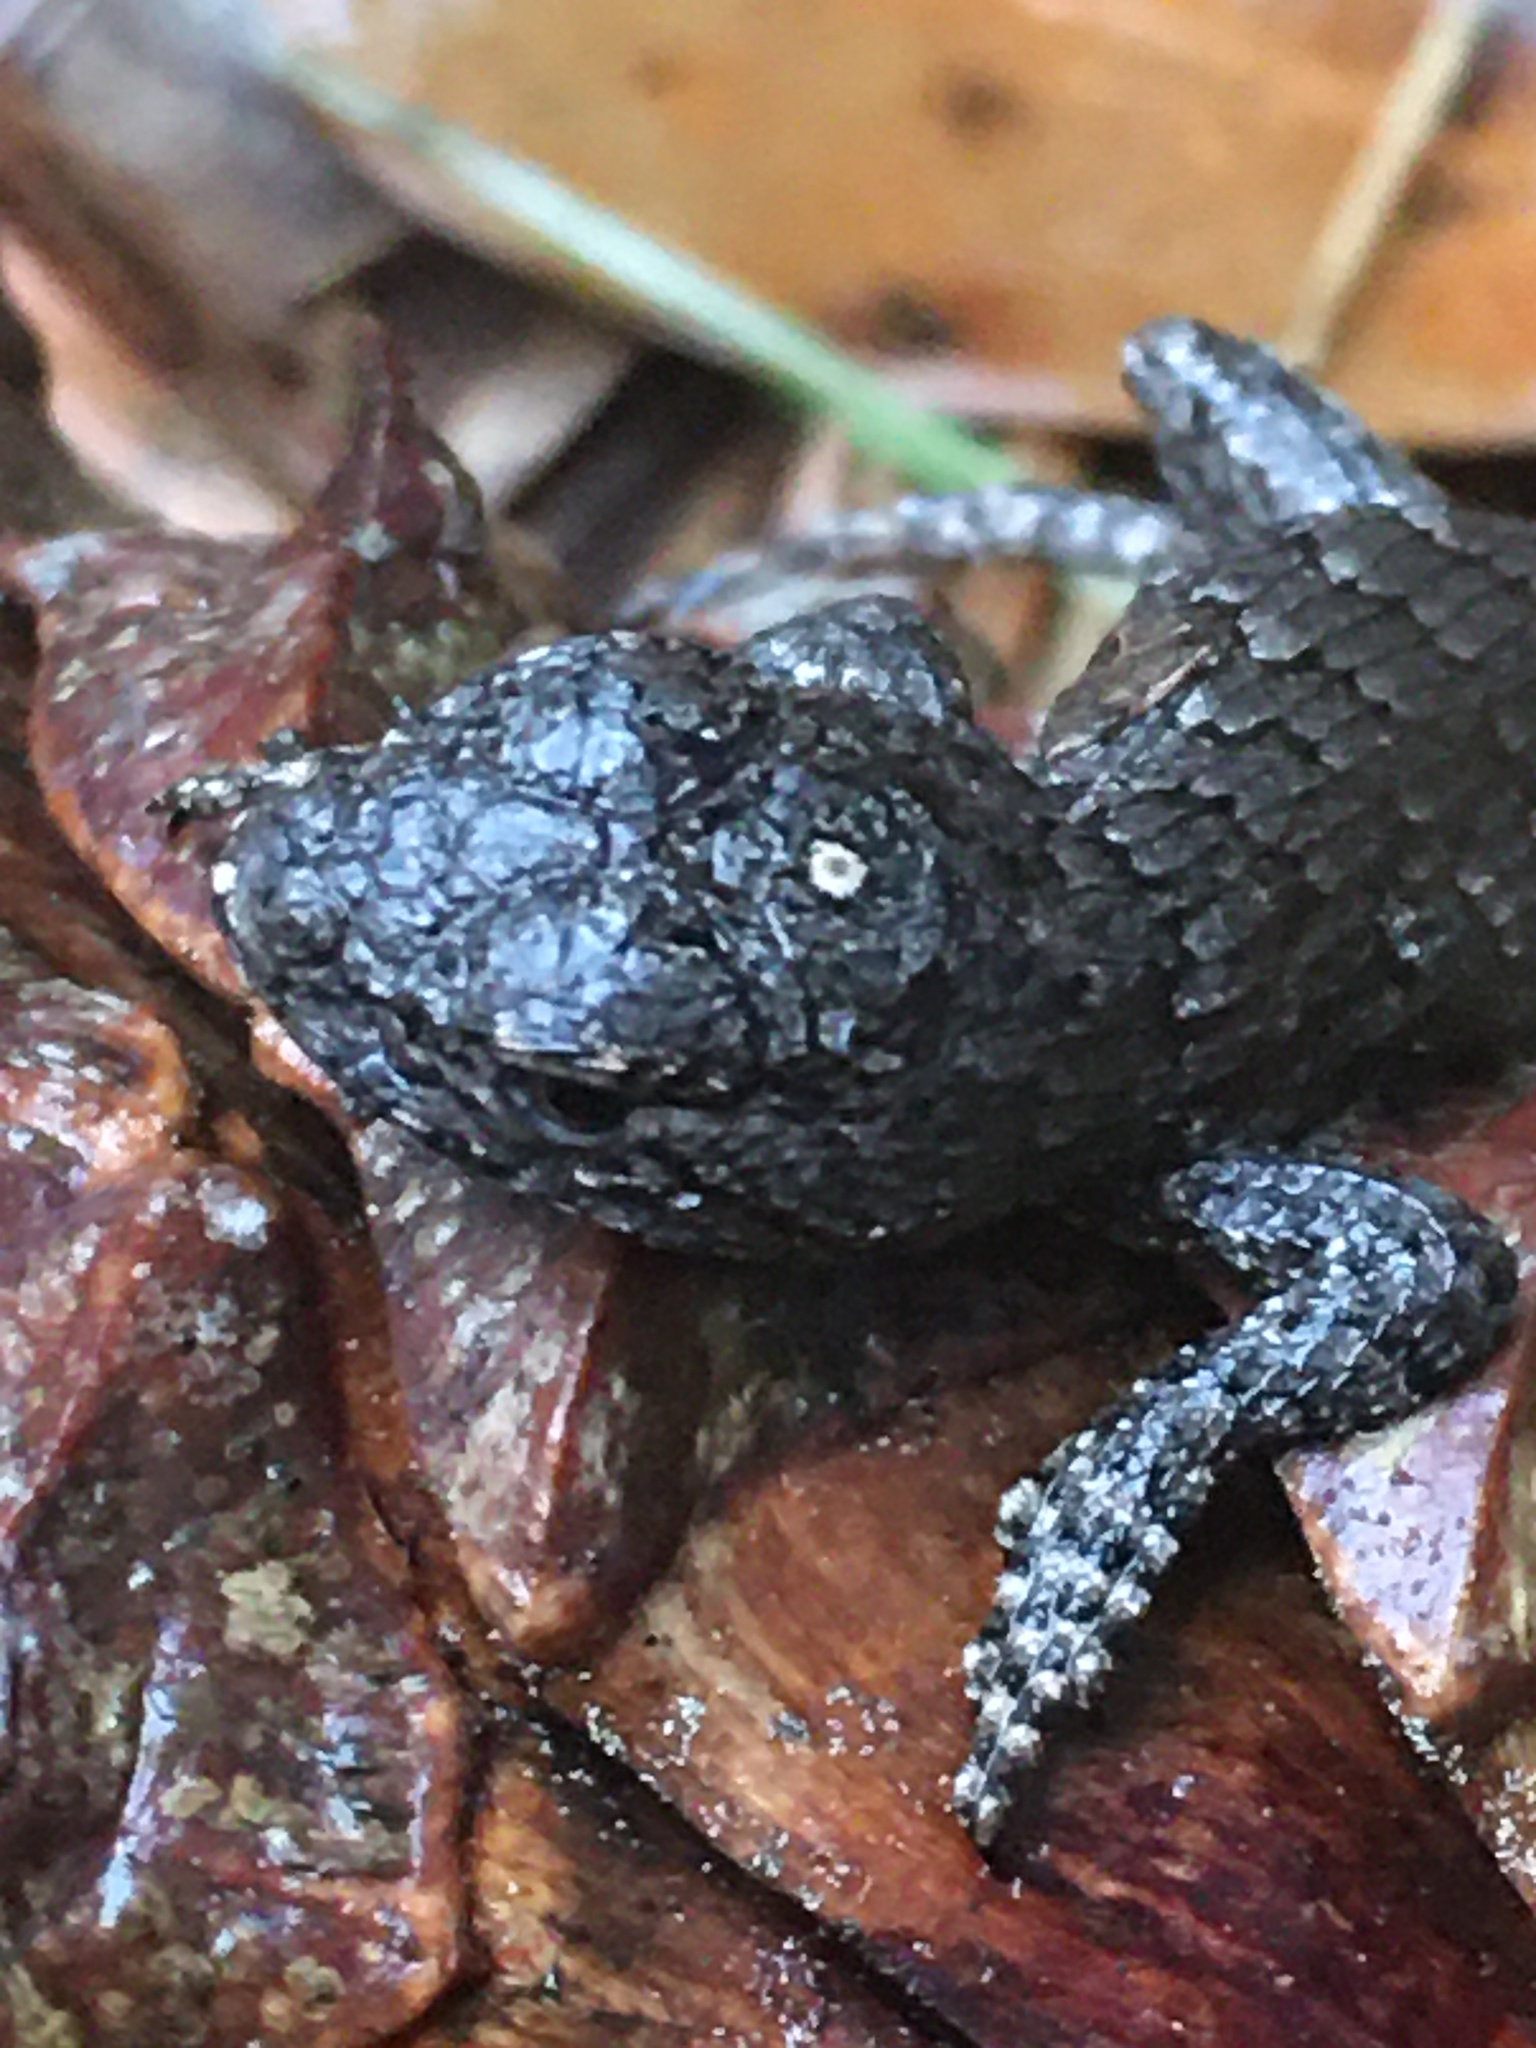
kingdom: Animalia
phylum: Chordata
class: Squamata
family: Phrynosomatidae
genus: Sceloporus
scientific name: Sceloporus undulatus
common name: Eastern fence lizard
